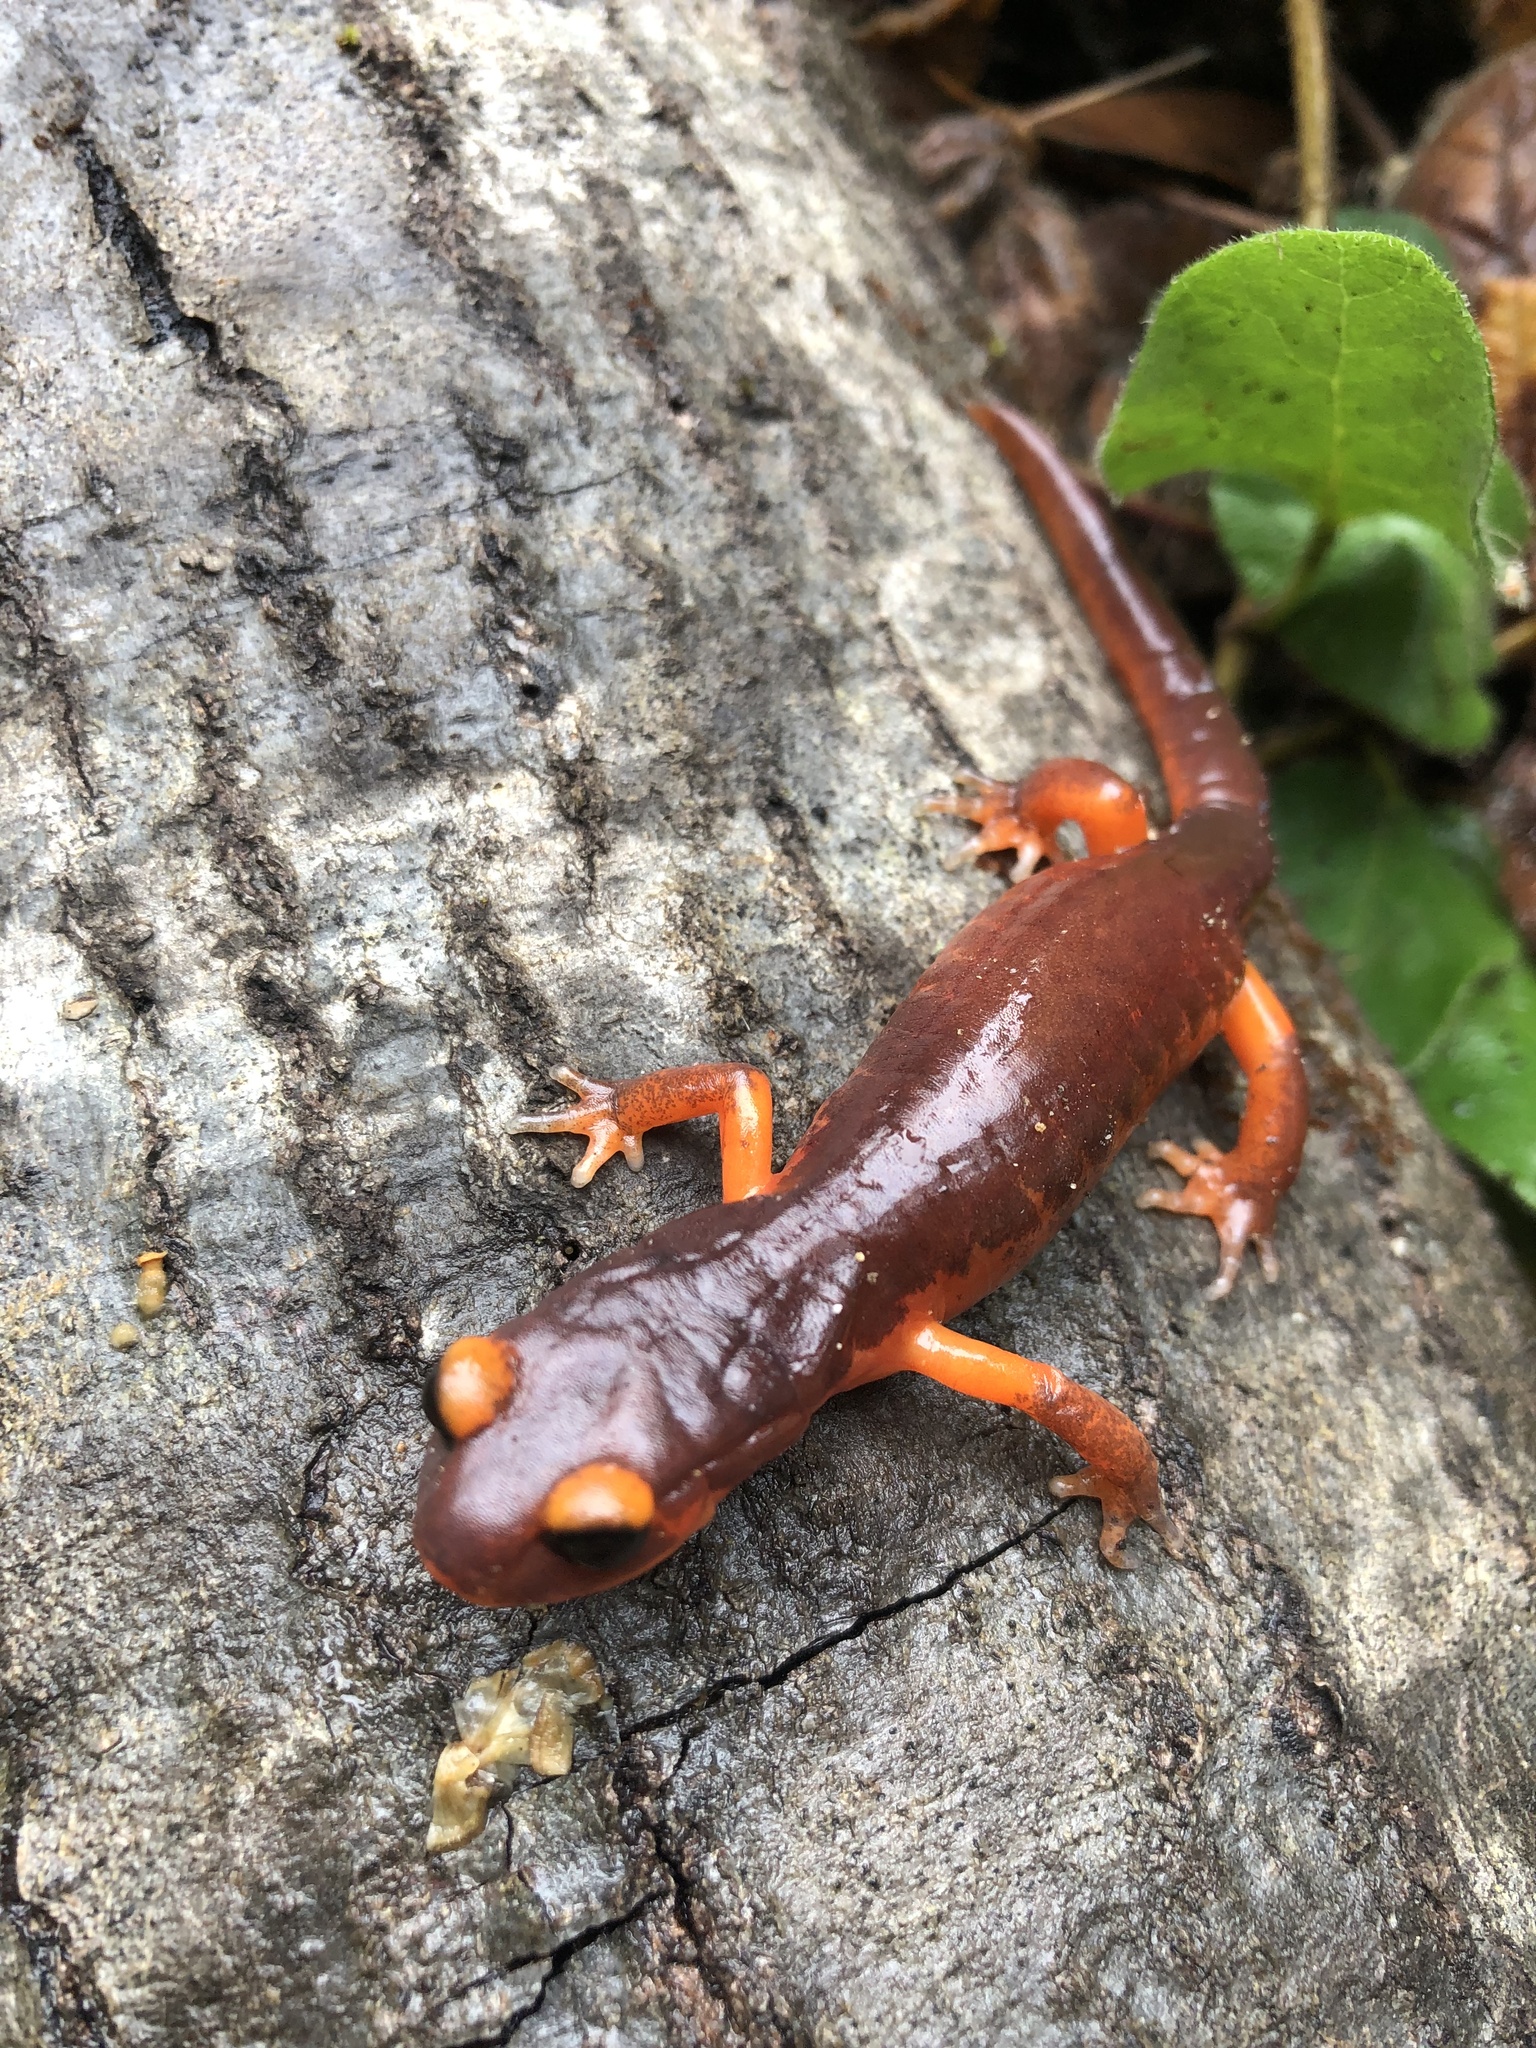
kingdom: Animalia
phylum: Chordata
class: Amphibia
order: Caudata
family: Plethodontidae
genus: Ensatina
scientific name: Ensatina eschscholtzii
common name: Ensatina
